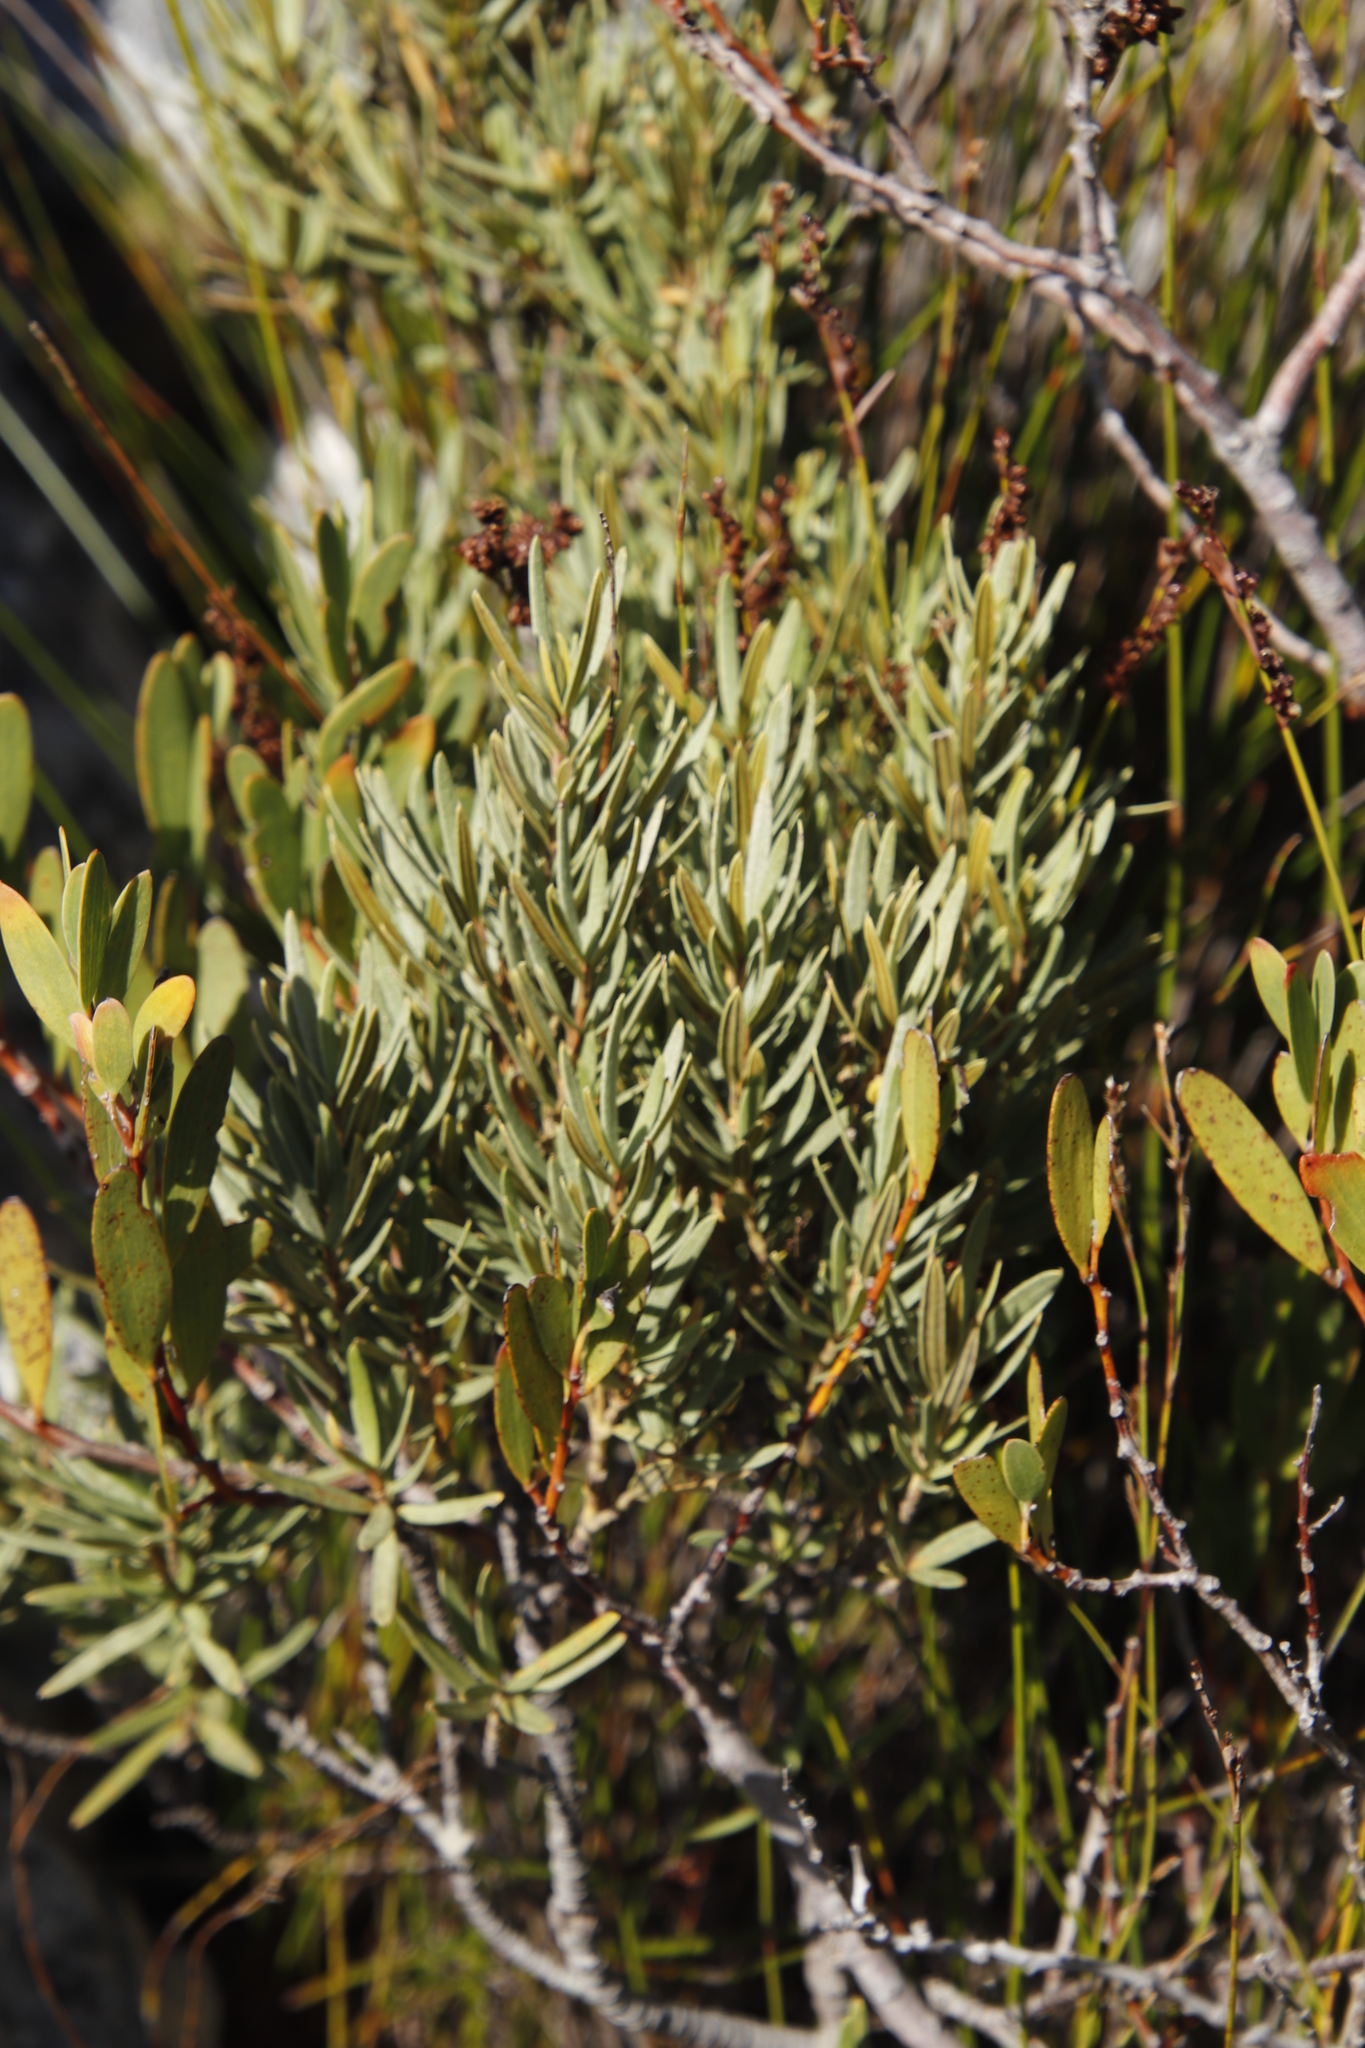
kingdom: Plantae
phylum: Tracheophyta
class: Magnoliopsida
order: Cornales
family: Grubbiaceae
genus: Grubbia
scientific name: Grubbia tomentosa
